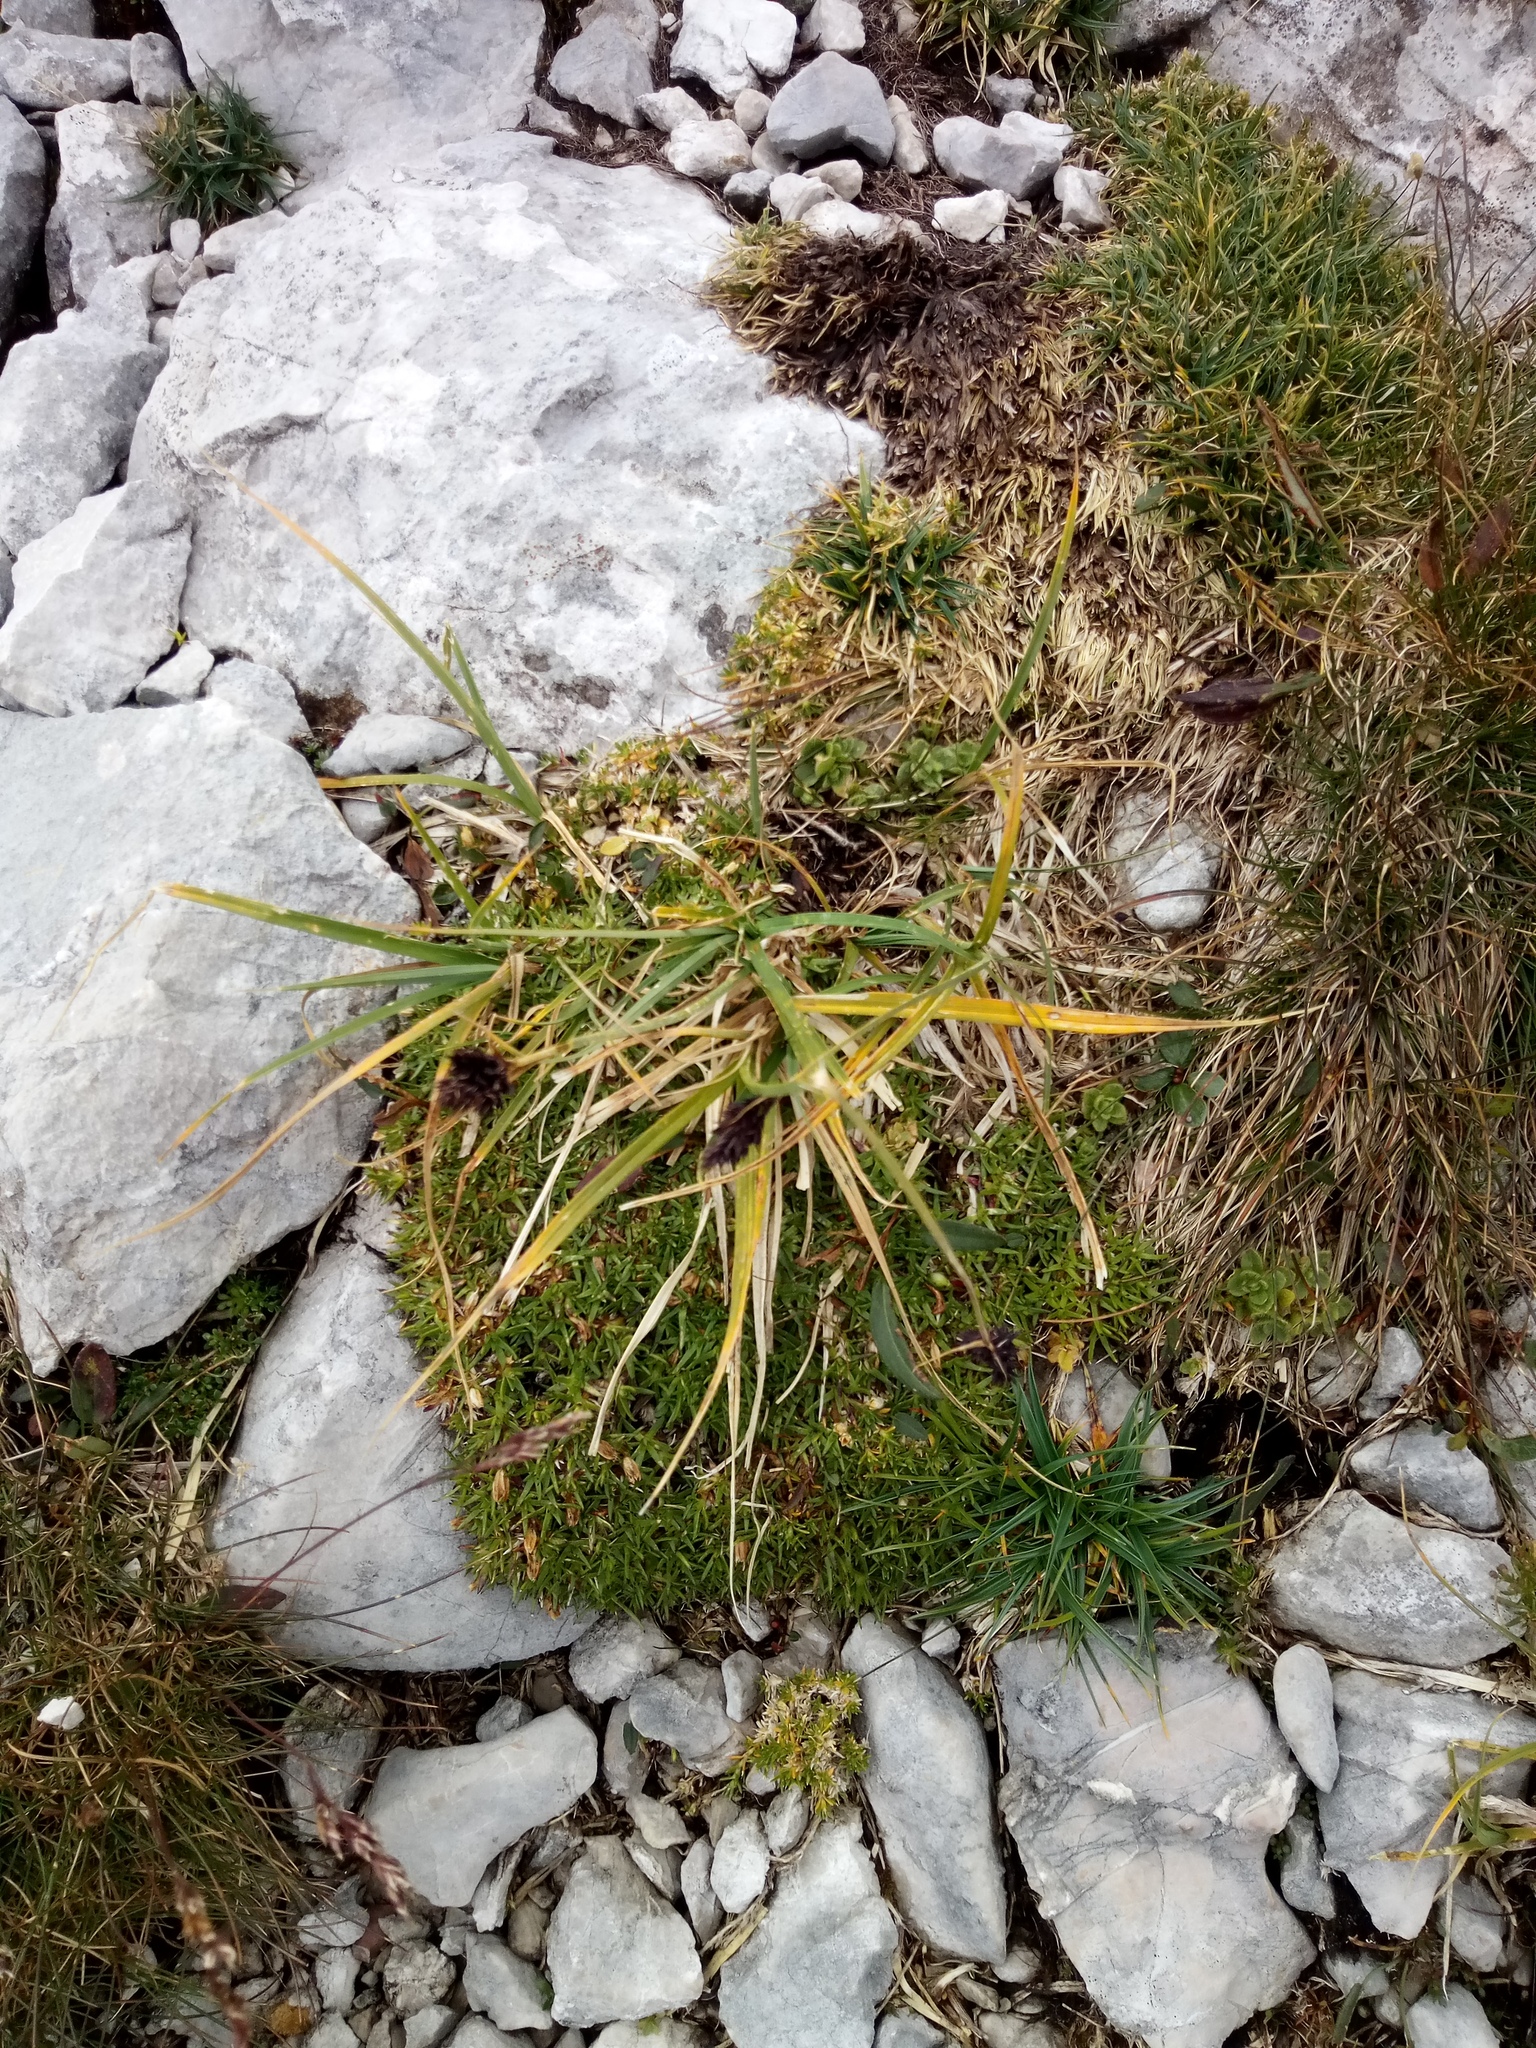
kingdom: Plantae
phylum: Tracheophyta
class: Liliopsida
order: Poales
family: Cyperaceae
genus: Carex
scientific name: Carex parviflora
